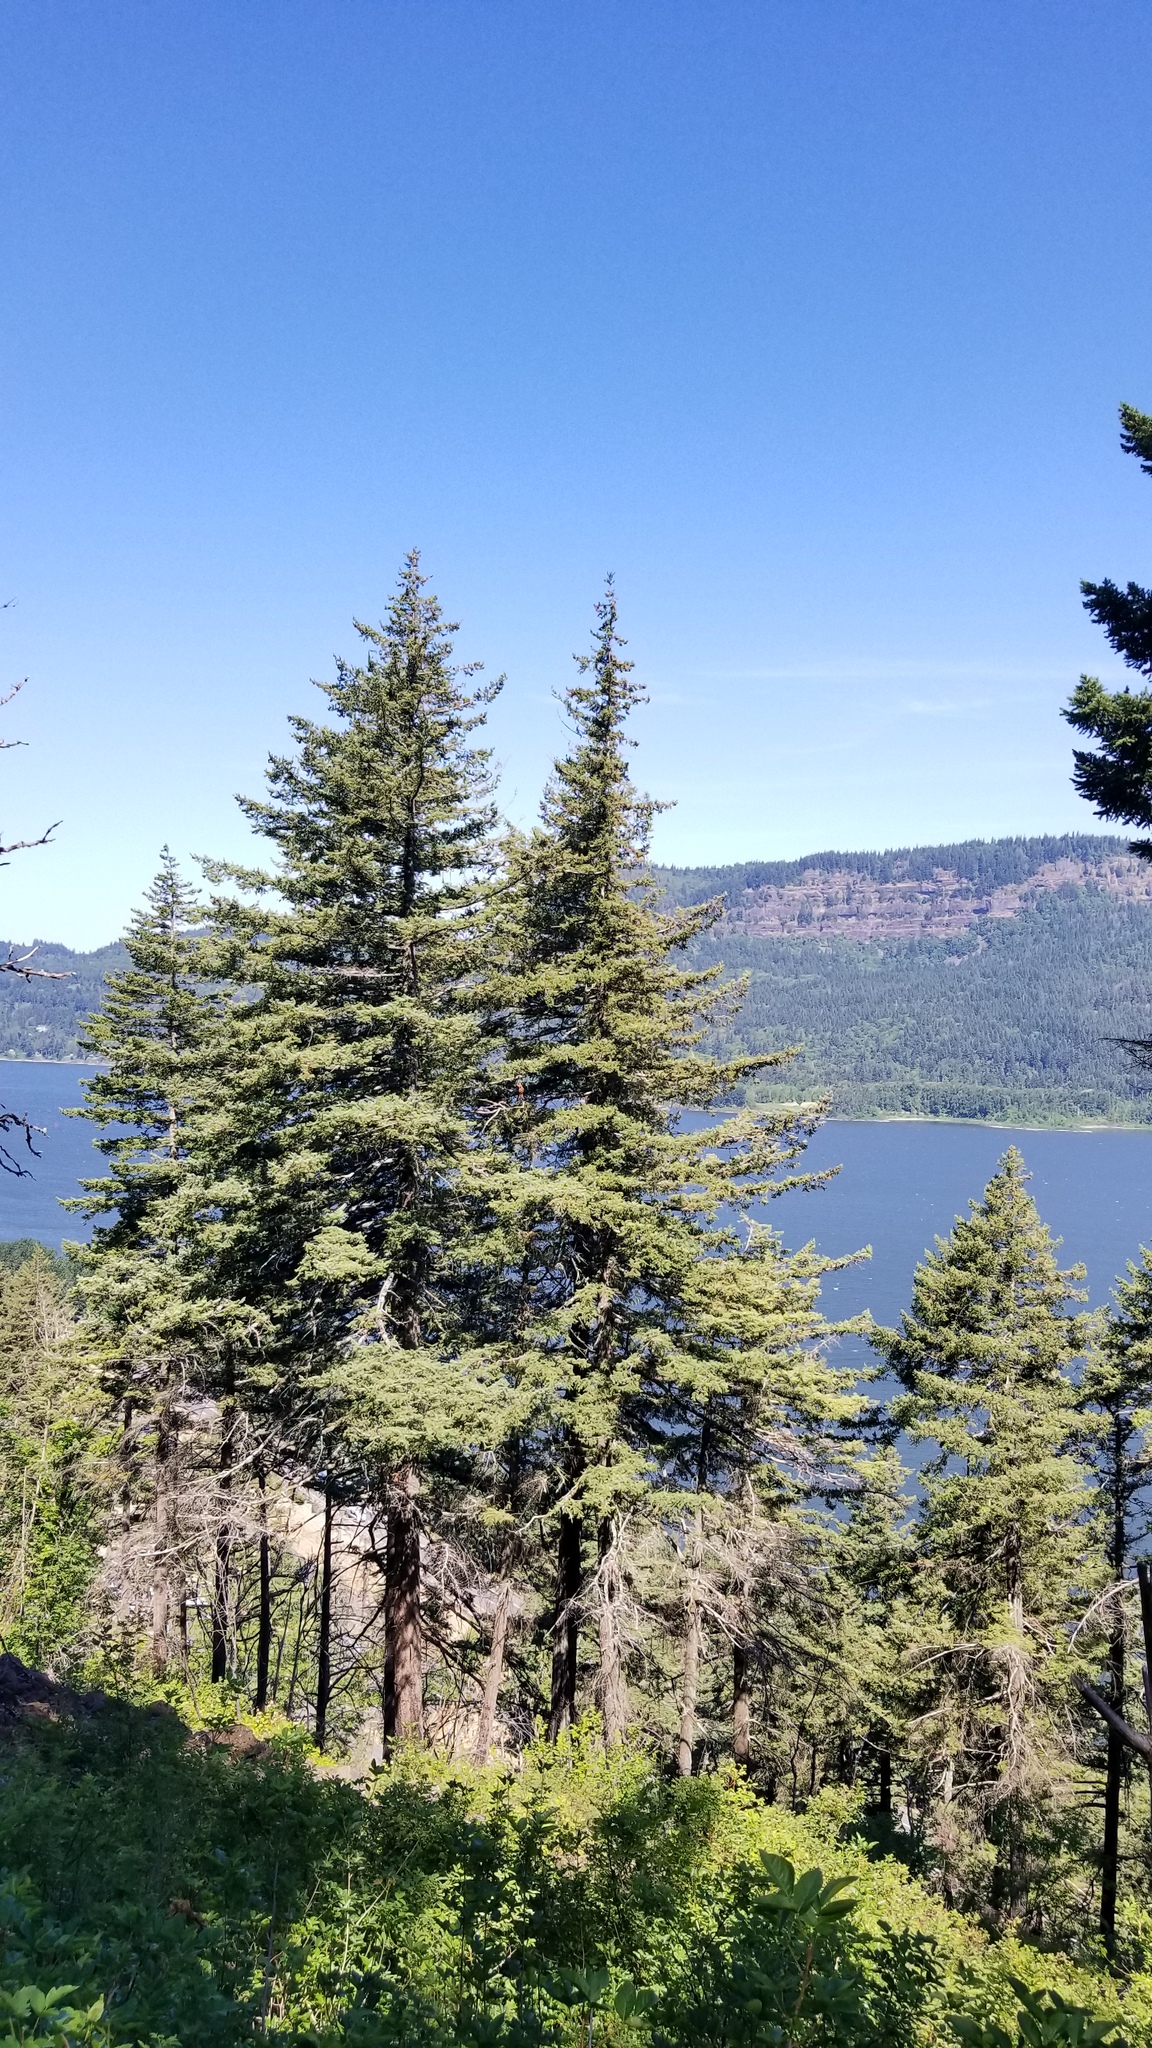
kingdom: Plantae
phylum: Tracheophyta
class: Pinopsida
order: Pinales
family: Pinaceae
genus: Pseudotsuga
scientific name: Pseudotsuga menziesii
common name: Douglas fir
